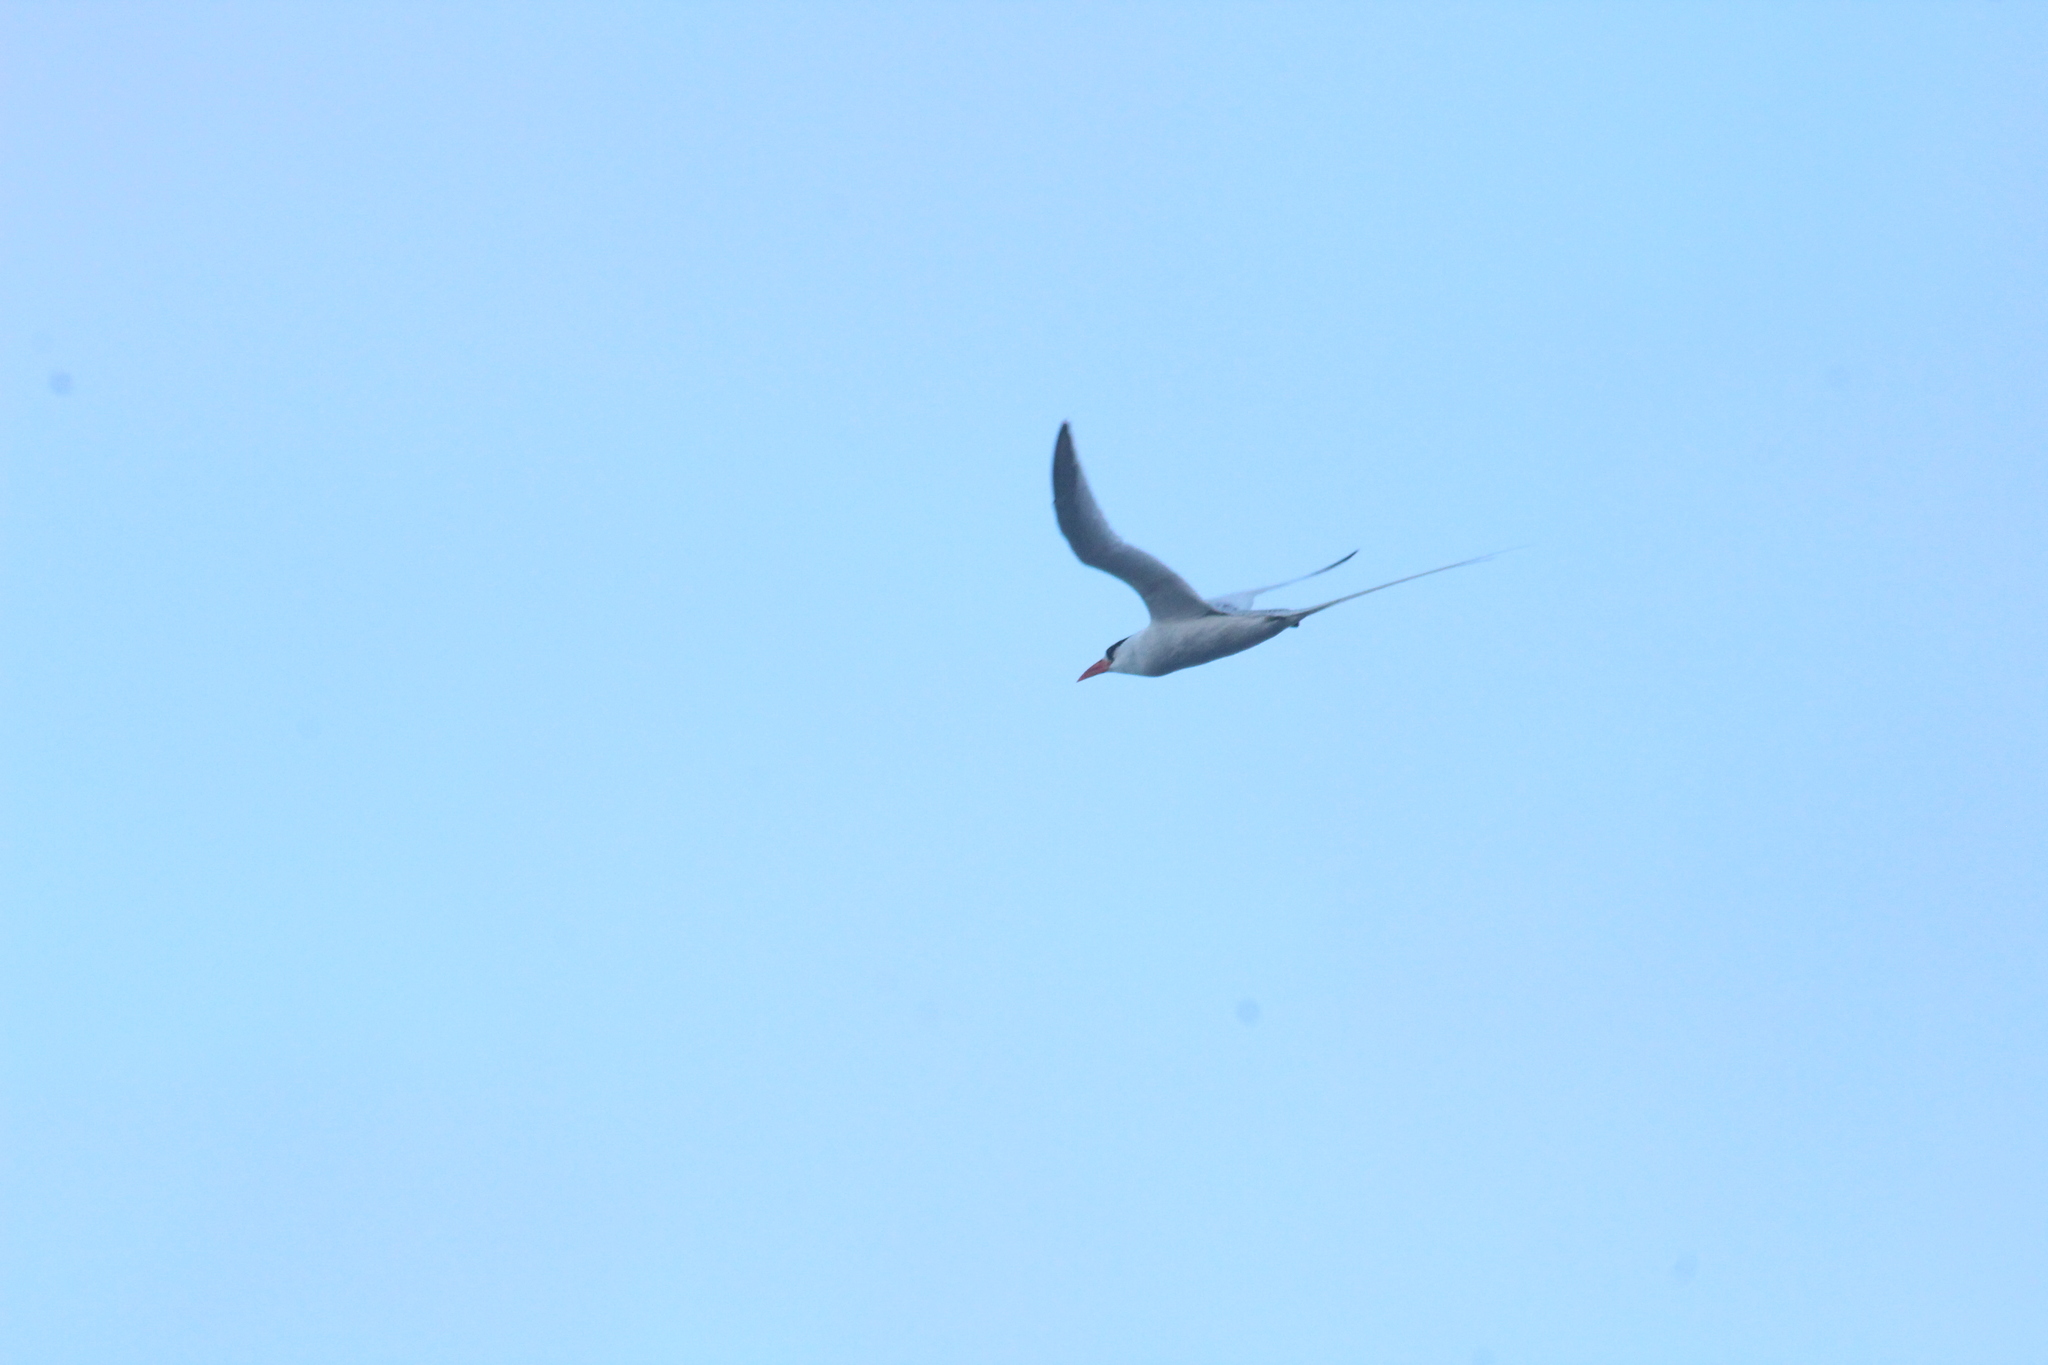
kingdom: Animalia
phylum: Chordata
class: Aves
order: Phaethontiformes
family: Phaethontidae
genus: Phaethon
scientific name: Phaethon aethereus
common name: Red-billed tropicbird
